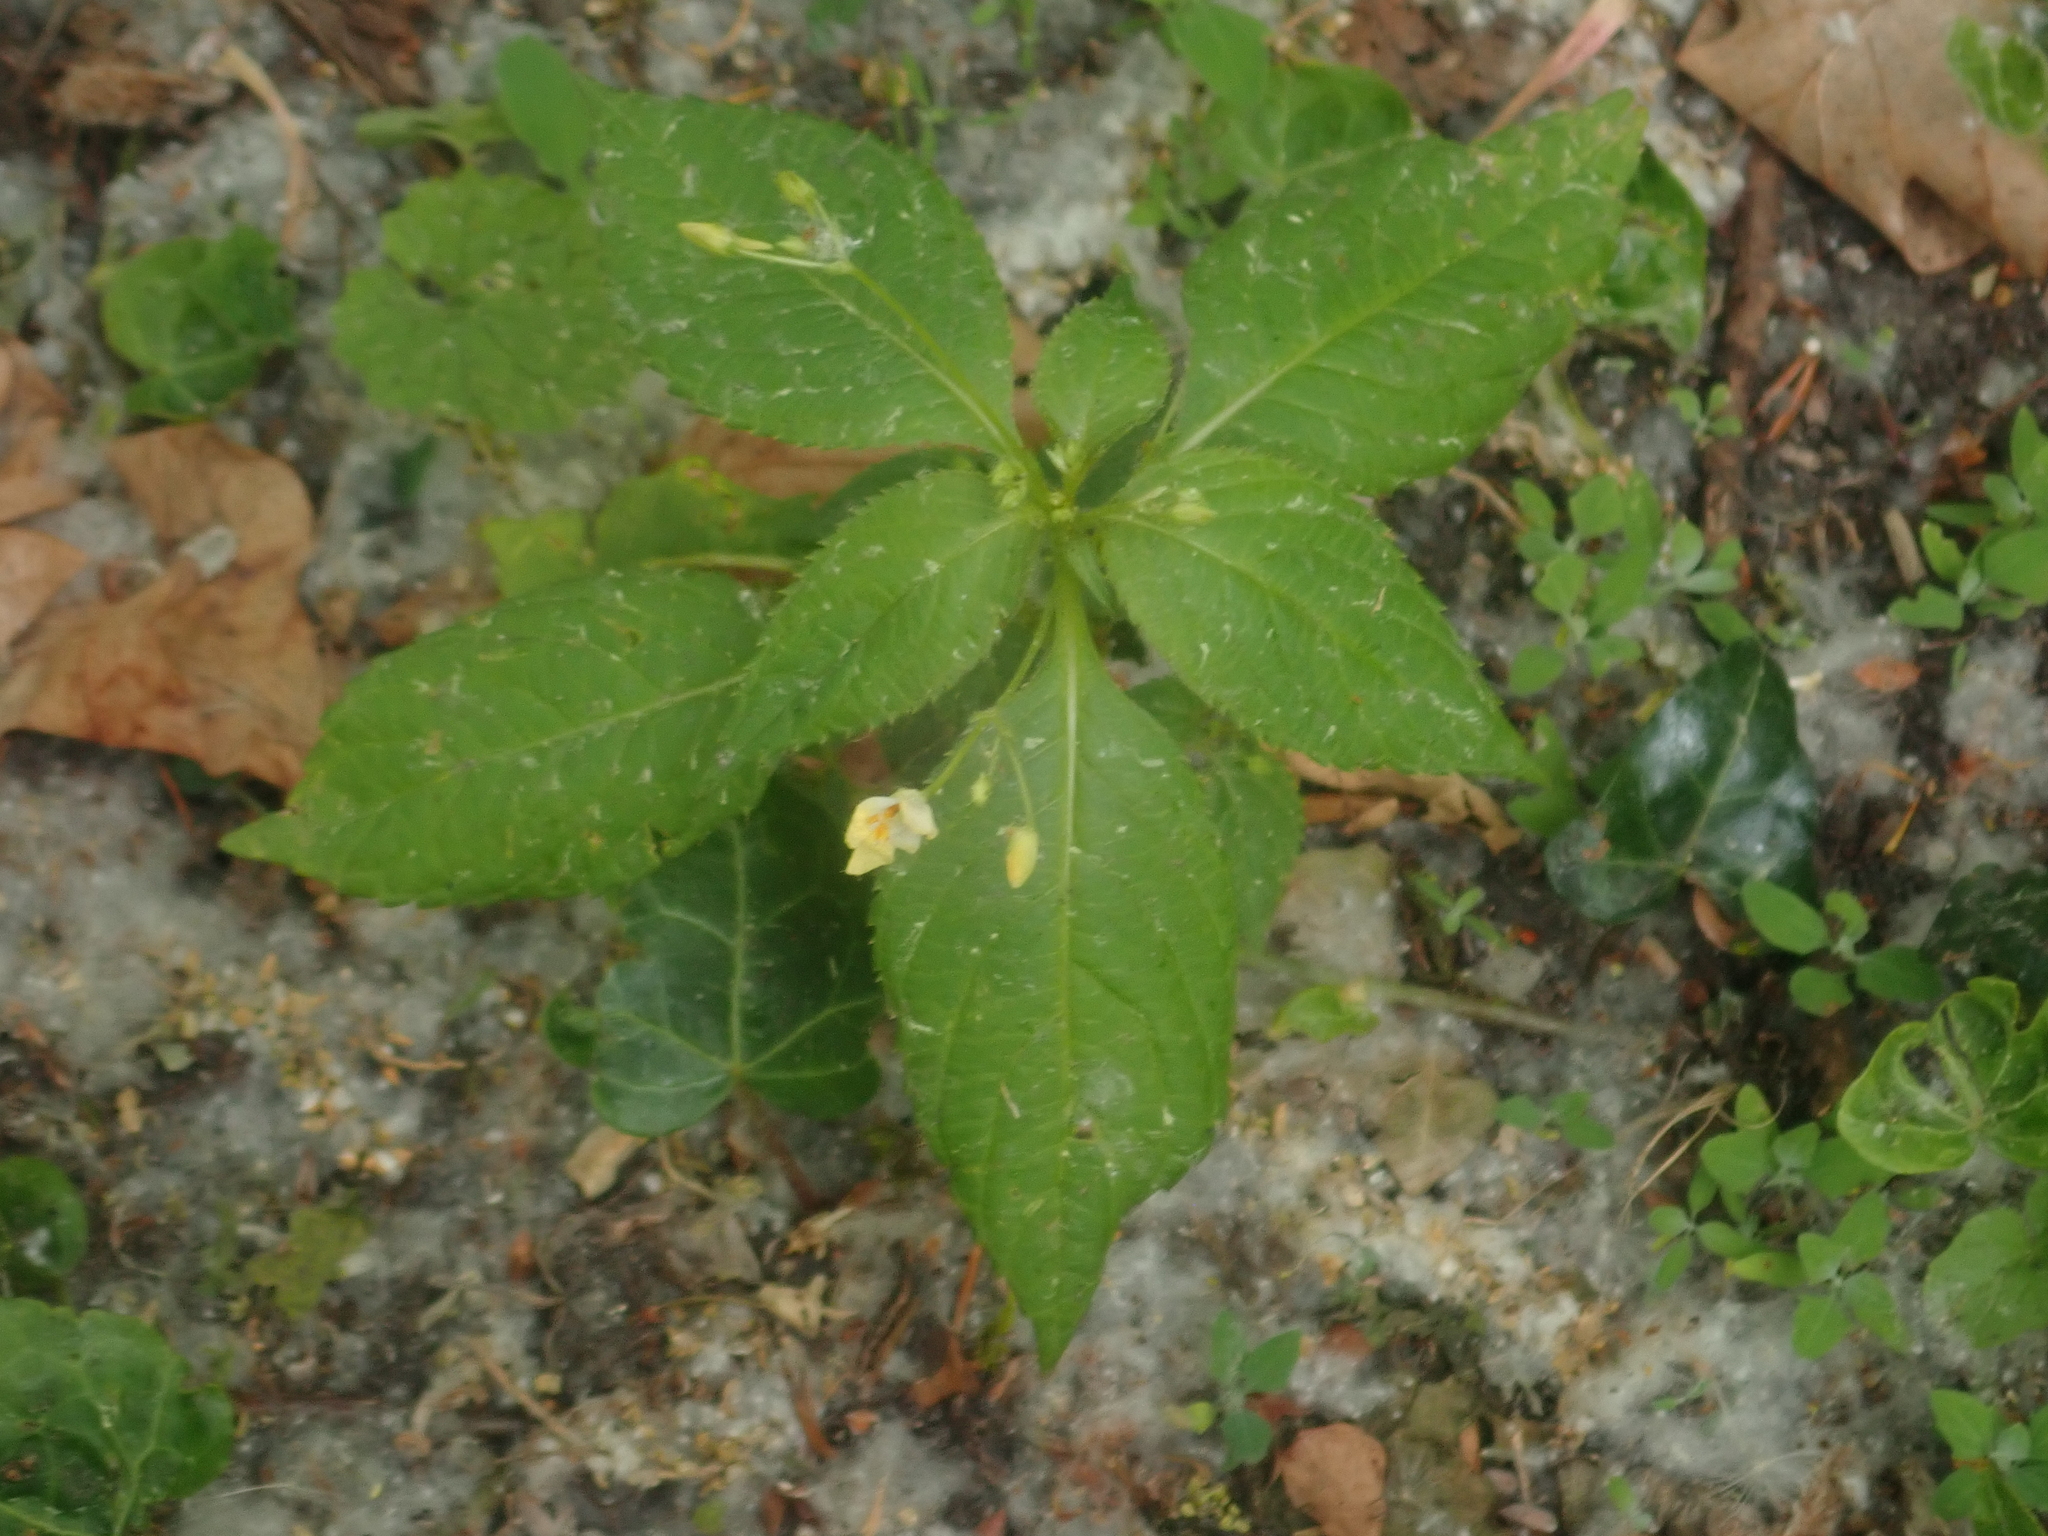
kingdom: Plantae
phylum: Tracheophyta
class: Magnoliopsida
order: Ericales
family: Balsaminaceae
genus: Impatiens
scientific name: Impatiens parviflora
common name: Small balsam
